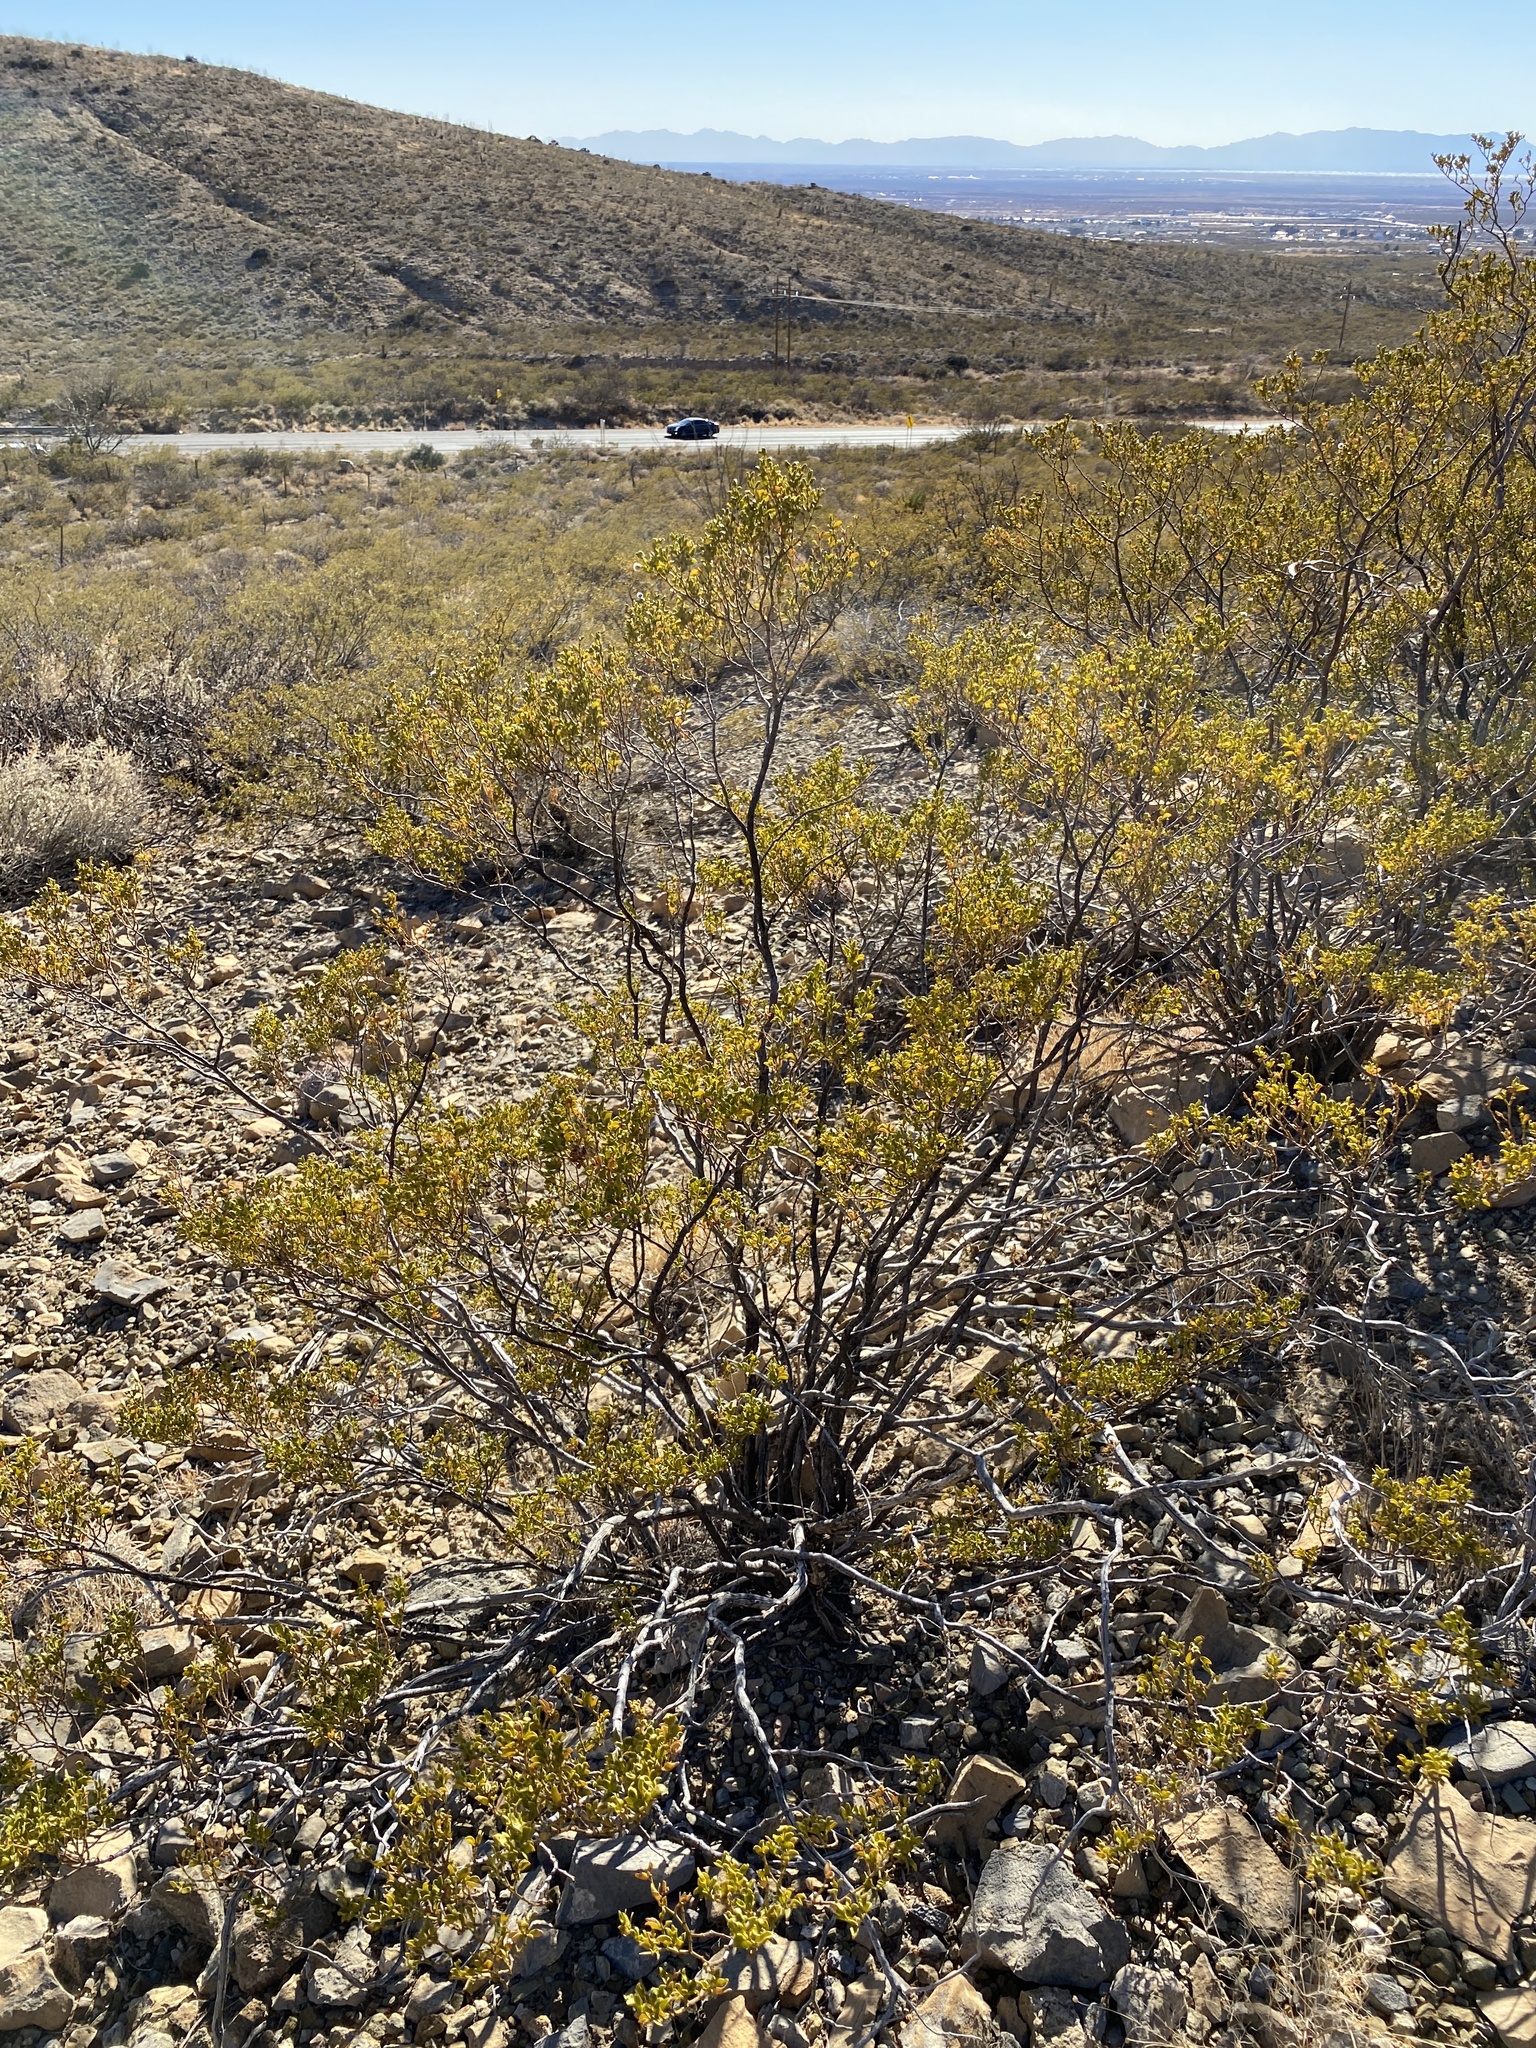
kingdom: Plantae
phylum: Tracheophyta
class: Magnoliopsida
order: Zygophyllales
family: Zygophyllaceae
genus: Larrea
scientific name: Larrea tridentata
